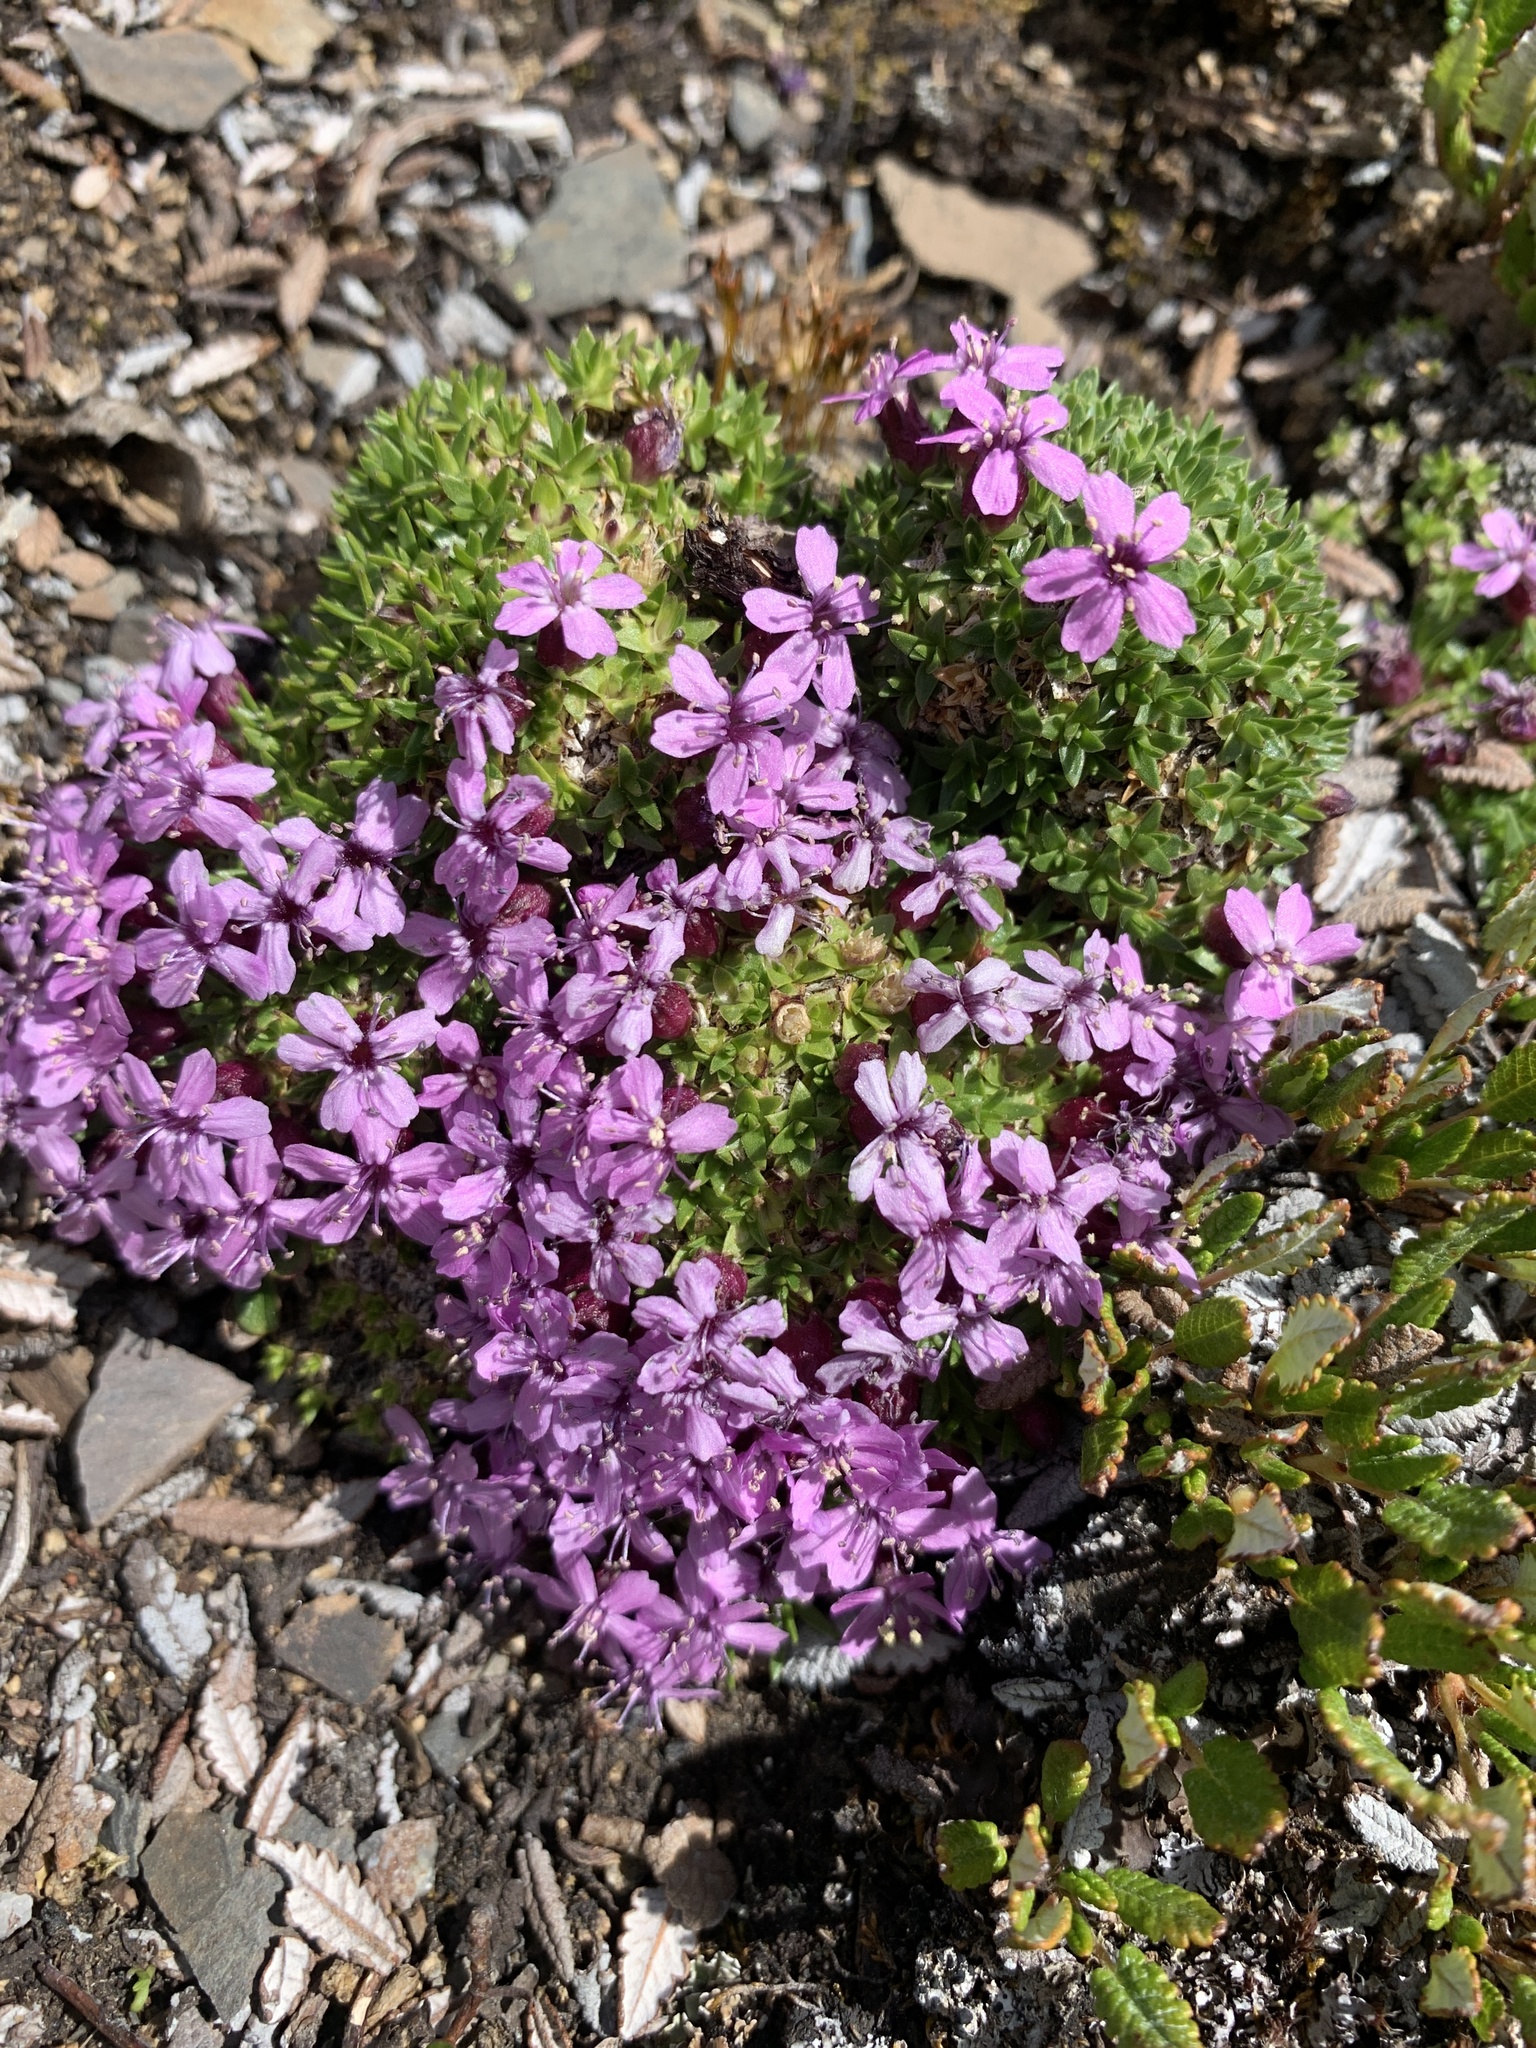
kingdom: Plantae
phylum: Tracheophyta
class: Magnoliopsida
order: Caryophyllales
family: Caryophyllaceae
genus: Silene
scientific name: Silene acaulis
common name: Moss campion
